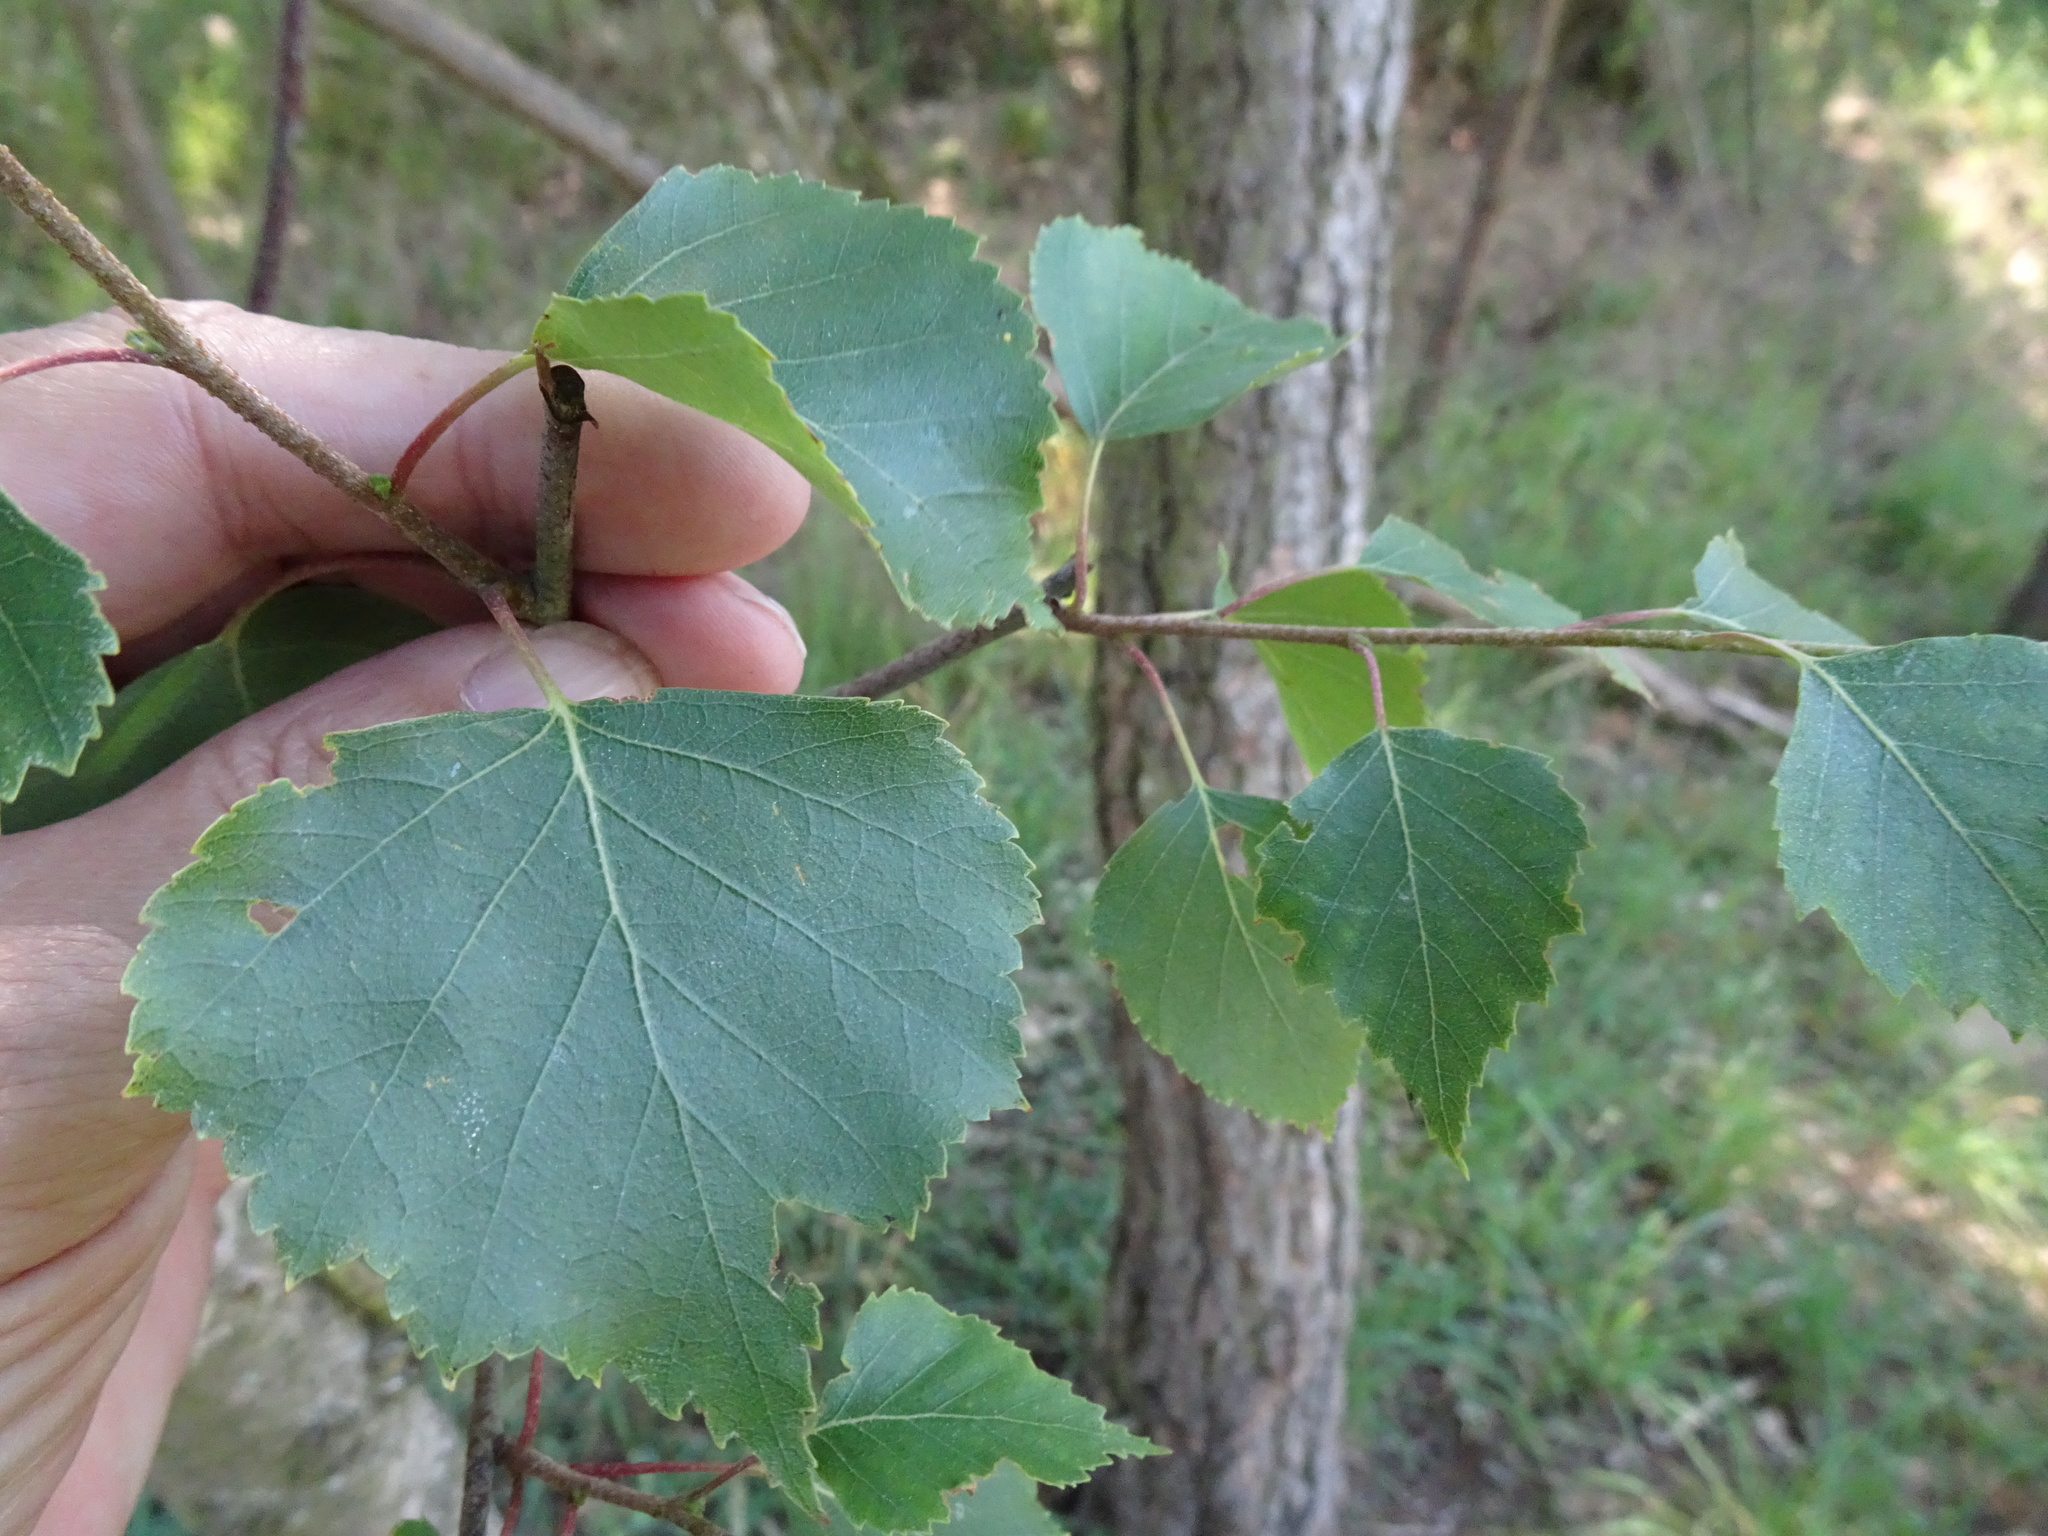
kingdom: Plantae
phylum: Tracheophyta
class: Magnoliopsida
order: Fagales
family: Betulaceae
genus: Betula
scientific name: Betula pendula
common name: Silver birch
